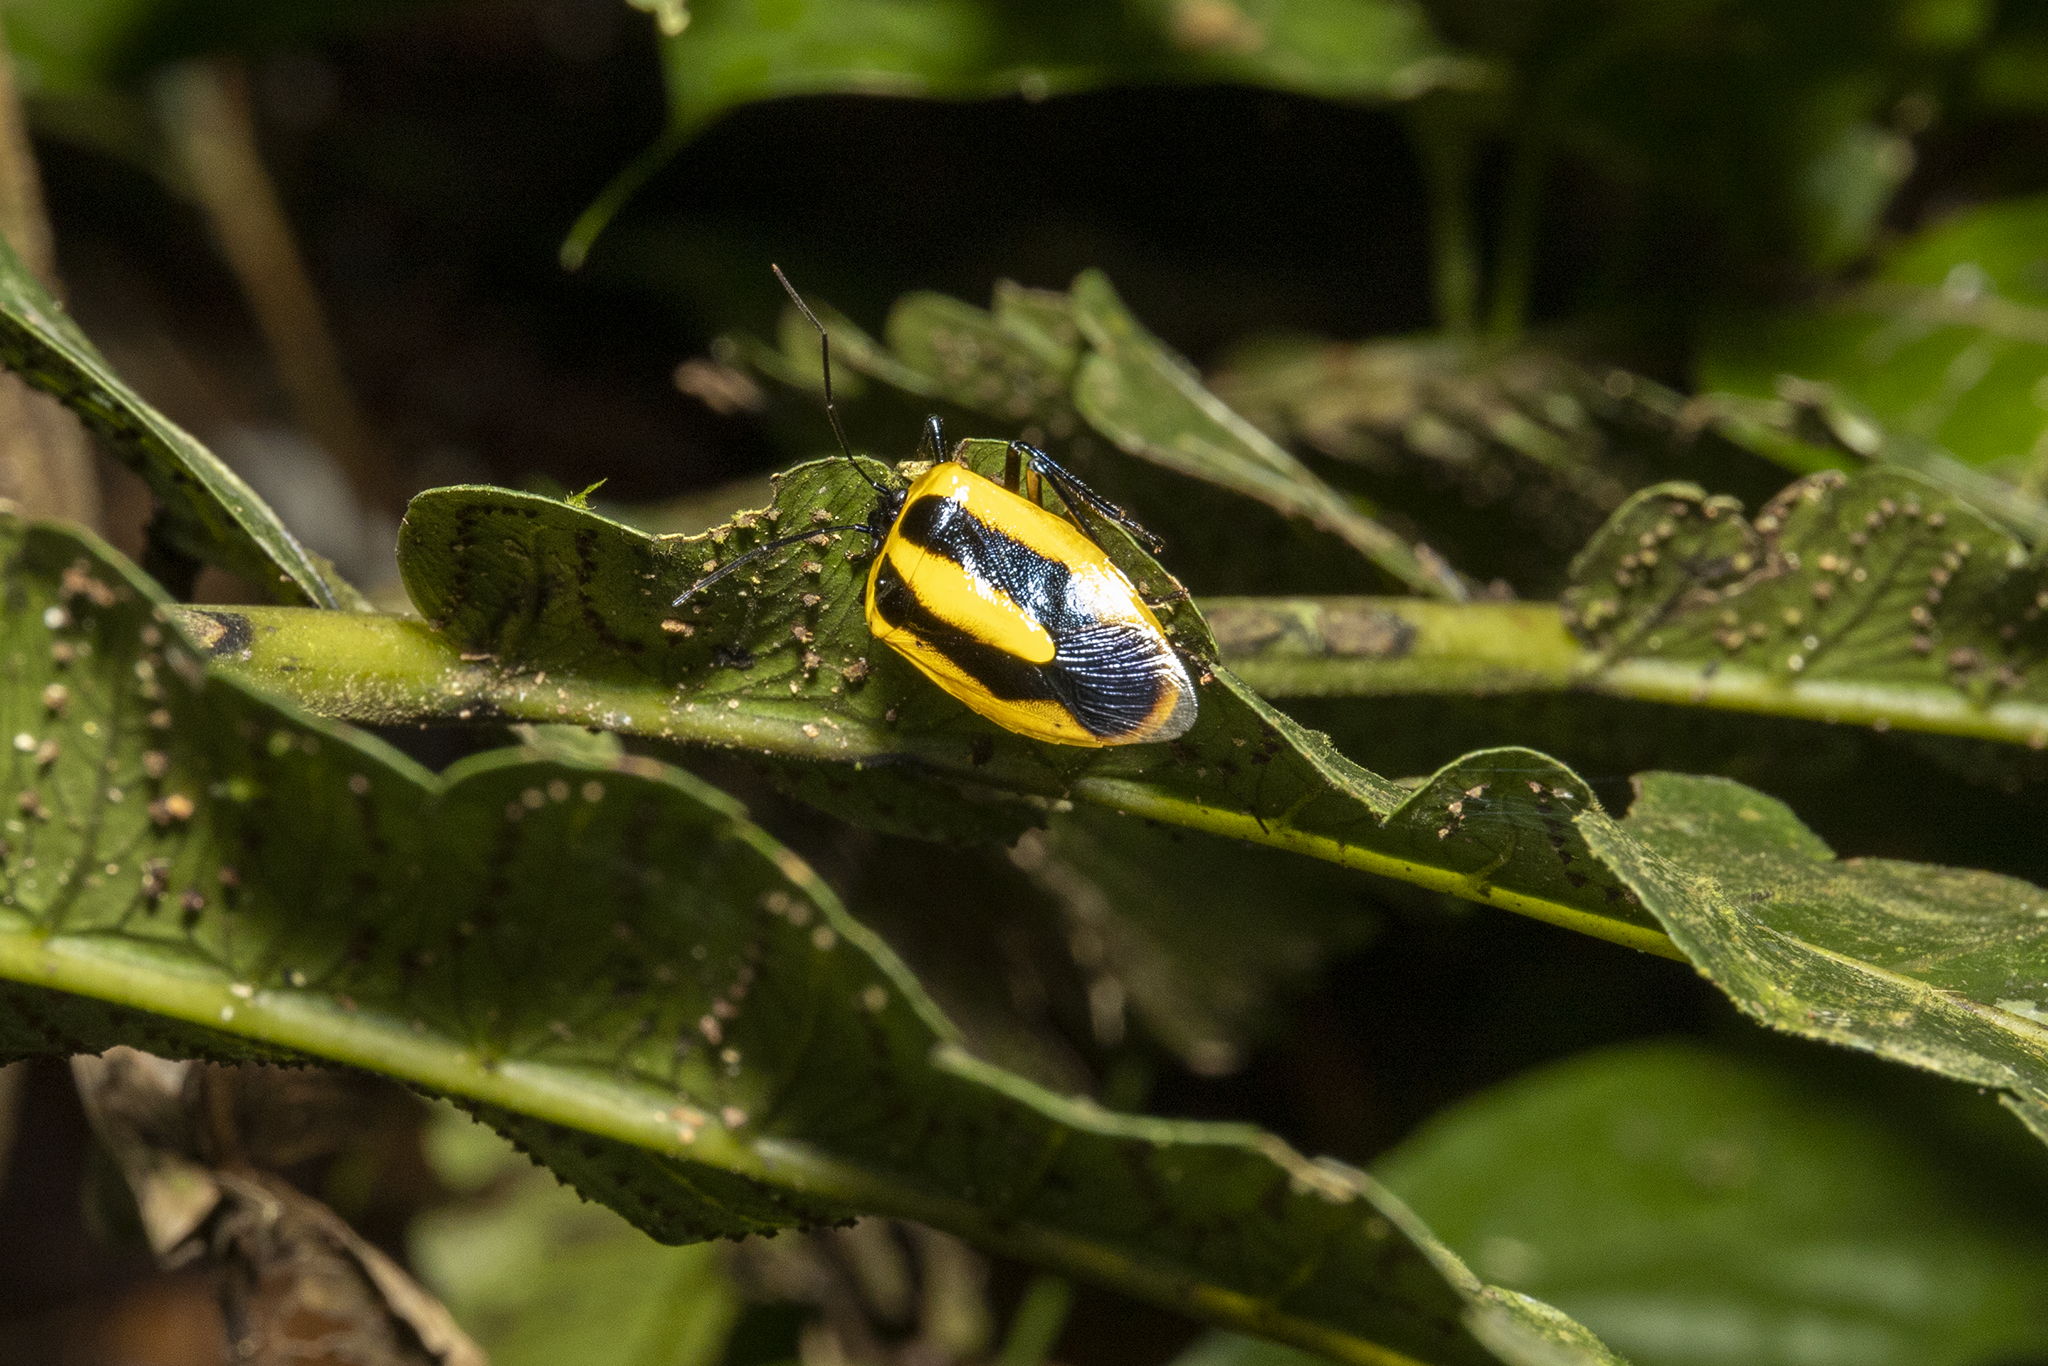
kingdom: Animalia
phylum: Arthropoda
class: Insecta
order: Hemiptera
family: Pentatomidae
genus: Arocera
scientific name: Arocera aequinoxialis
